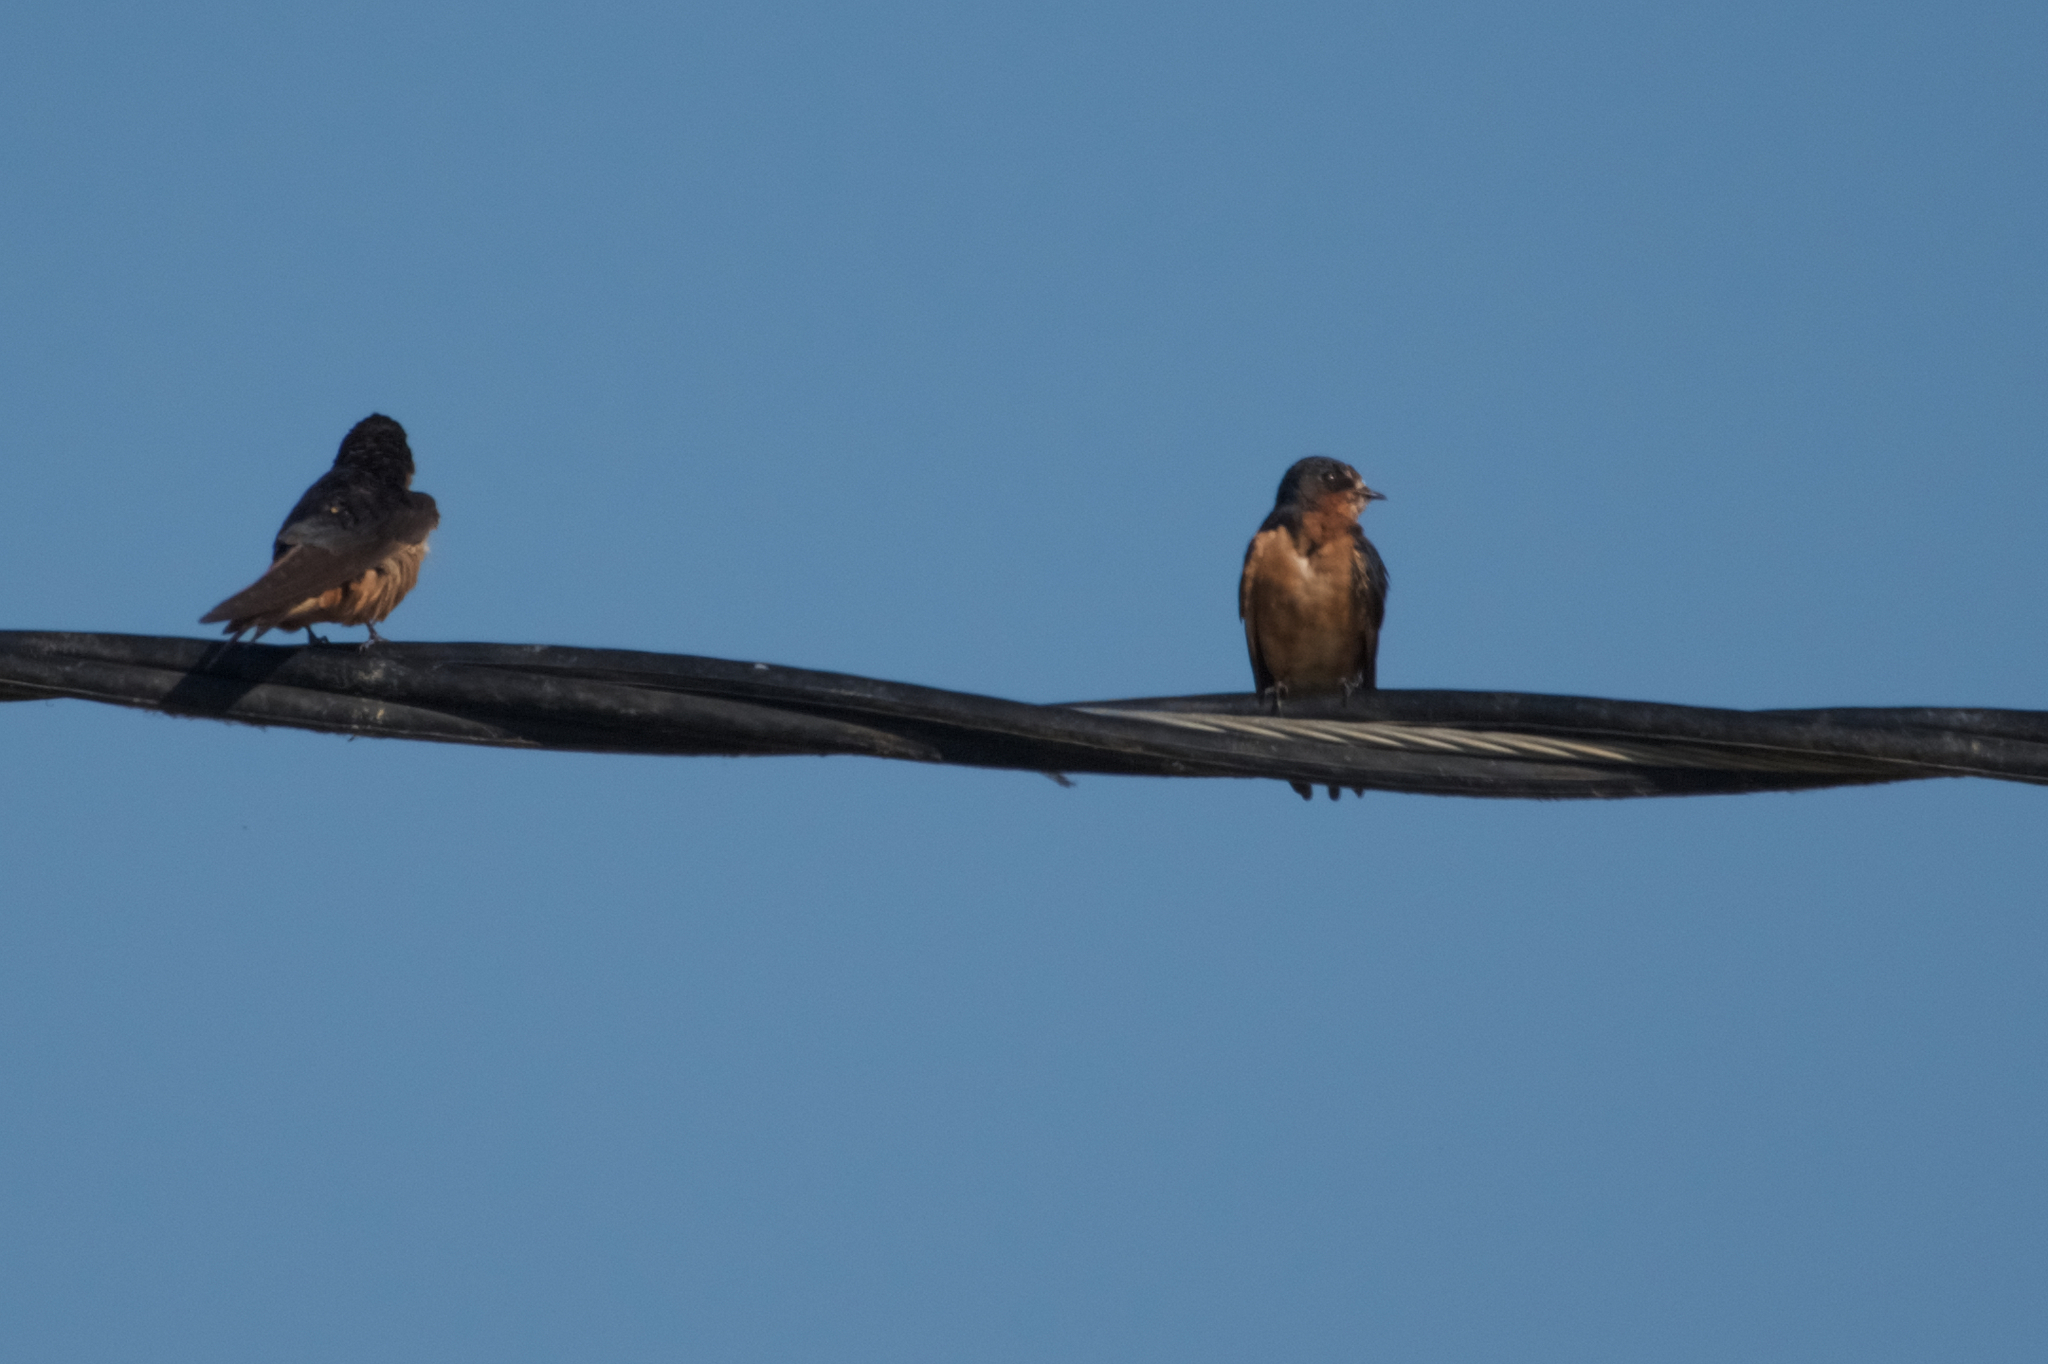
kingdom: Animalia
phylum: Chordata
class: Aves
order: Passeriformes
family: Hirundinidae
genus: Hirundo
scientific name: Hirundo rustica
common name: Barn swallow
